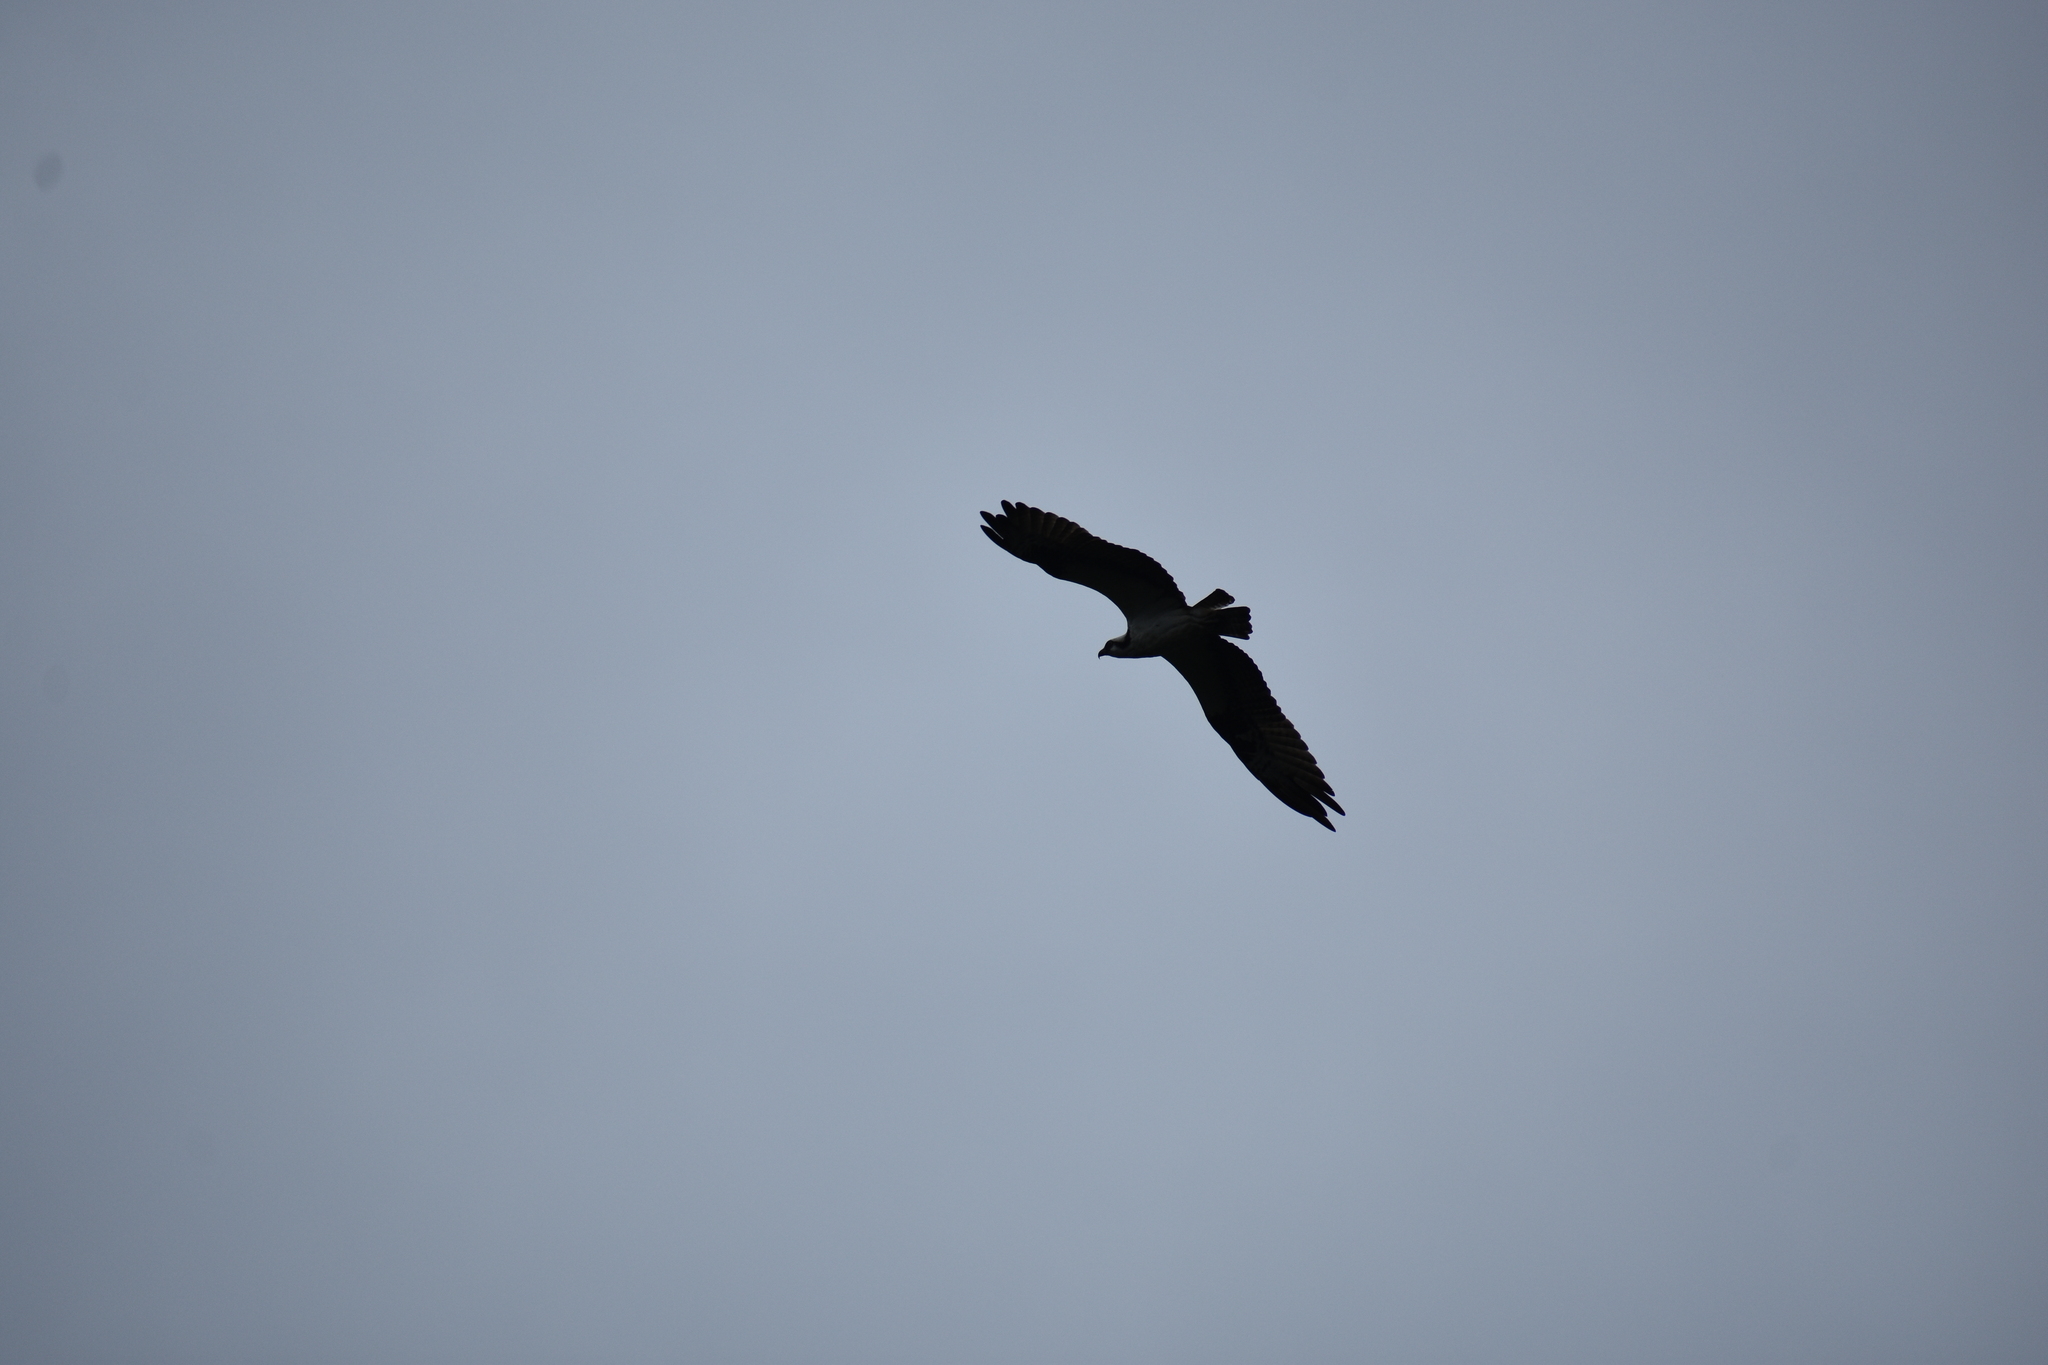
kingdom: Animalia
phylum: Chordata
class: Aves
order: Accipitriformes
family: Pandionidae
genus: Pandion
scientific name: Pandion haliaetus
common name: Osprey
